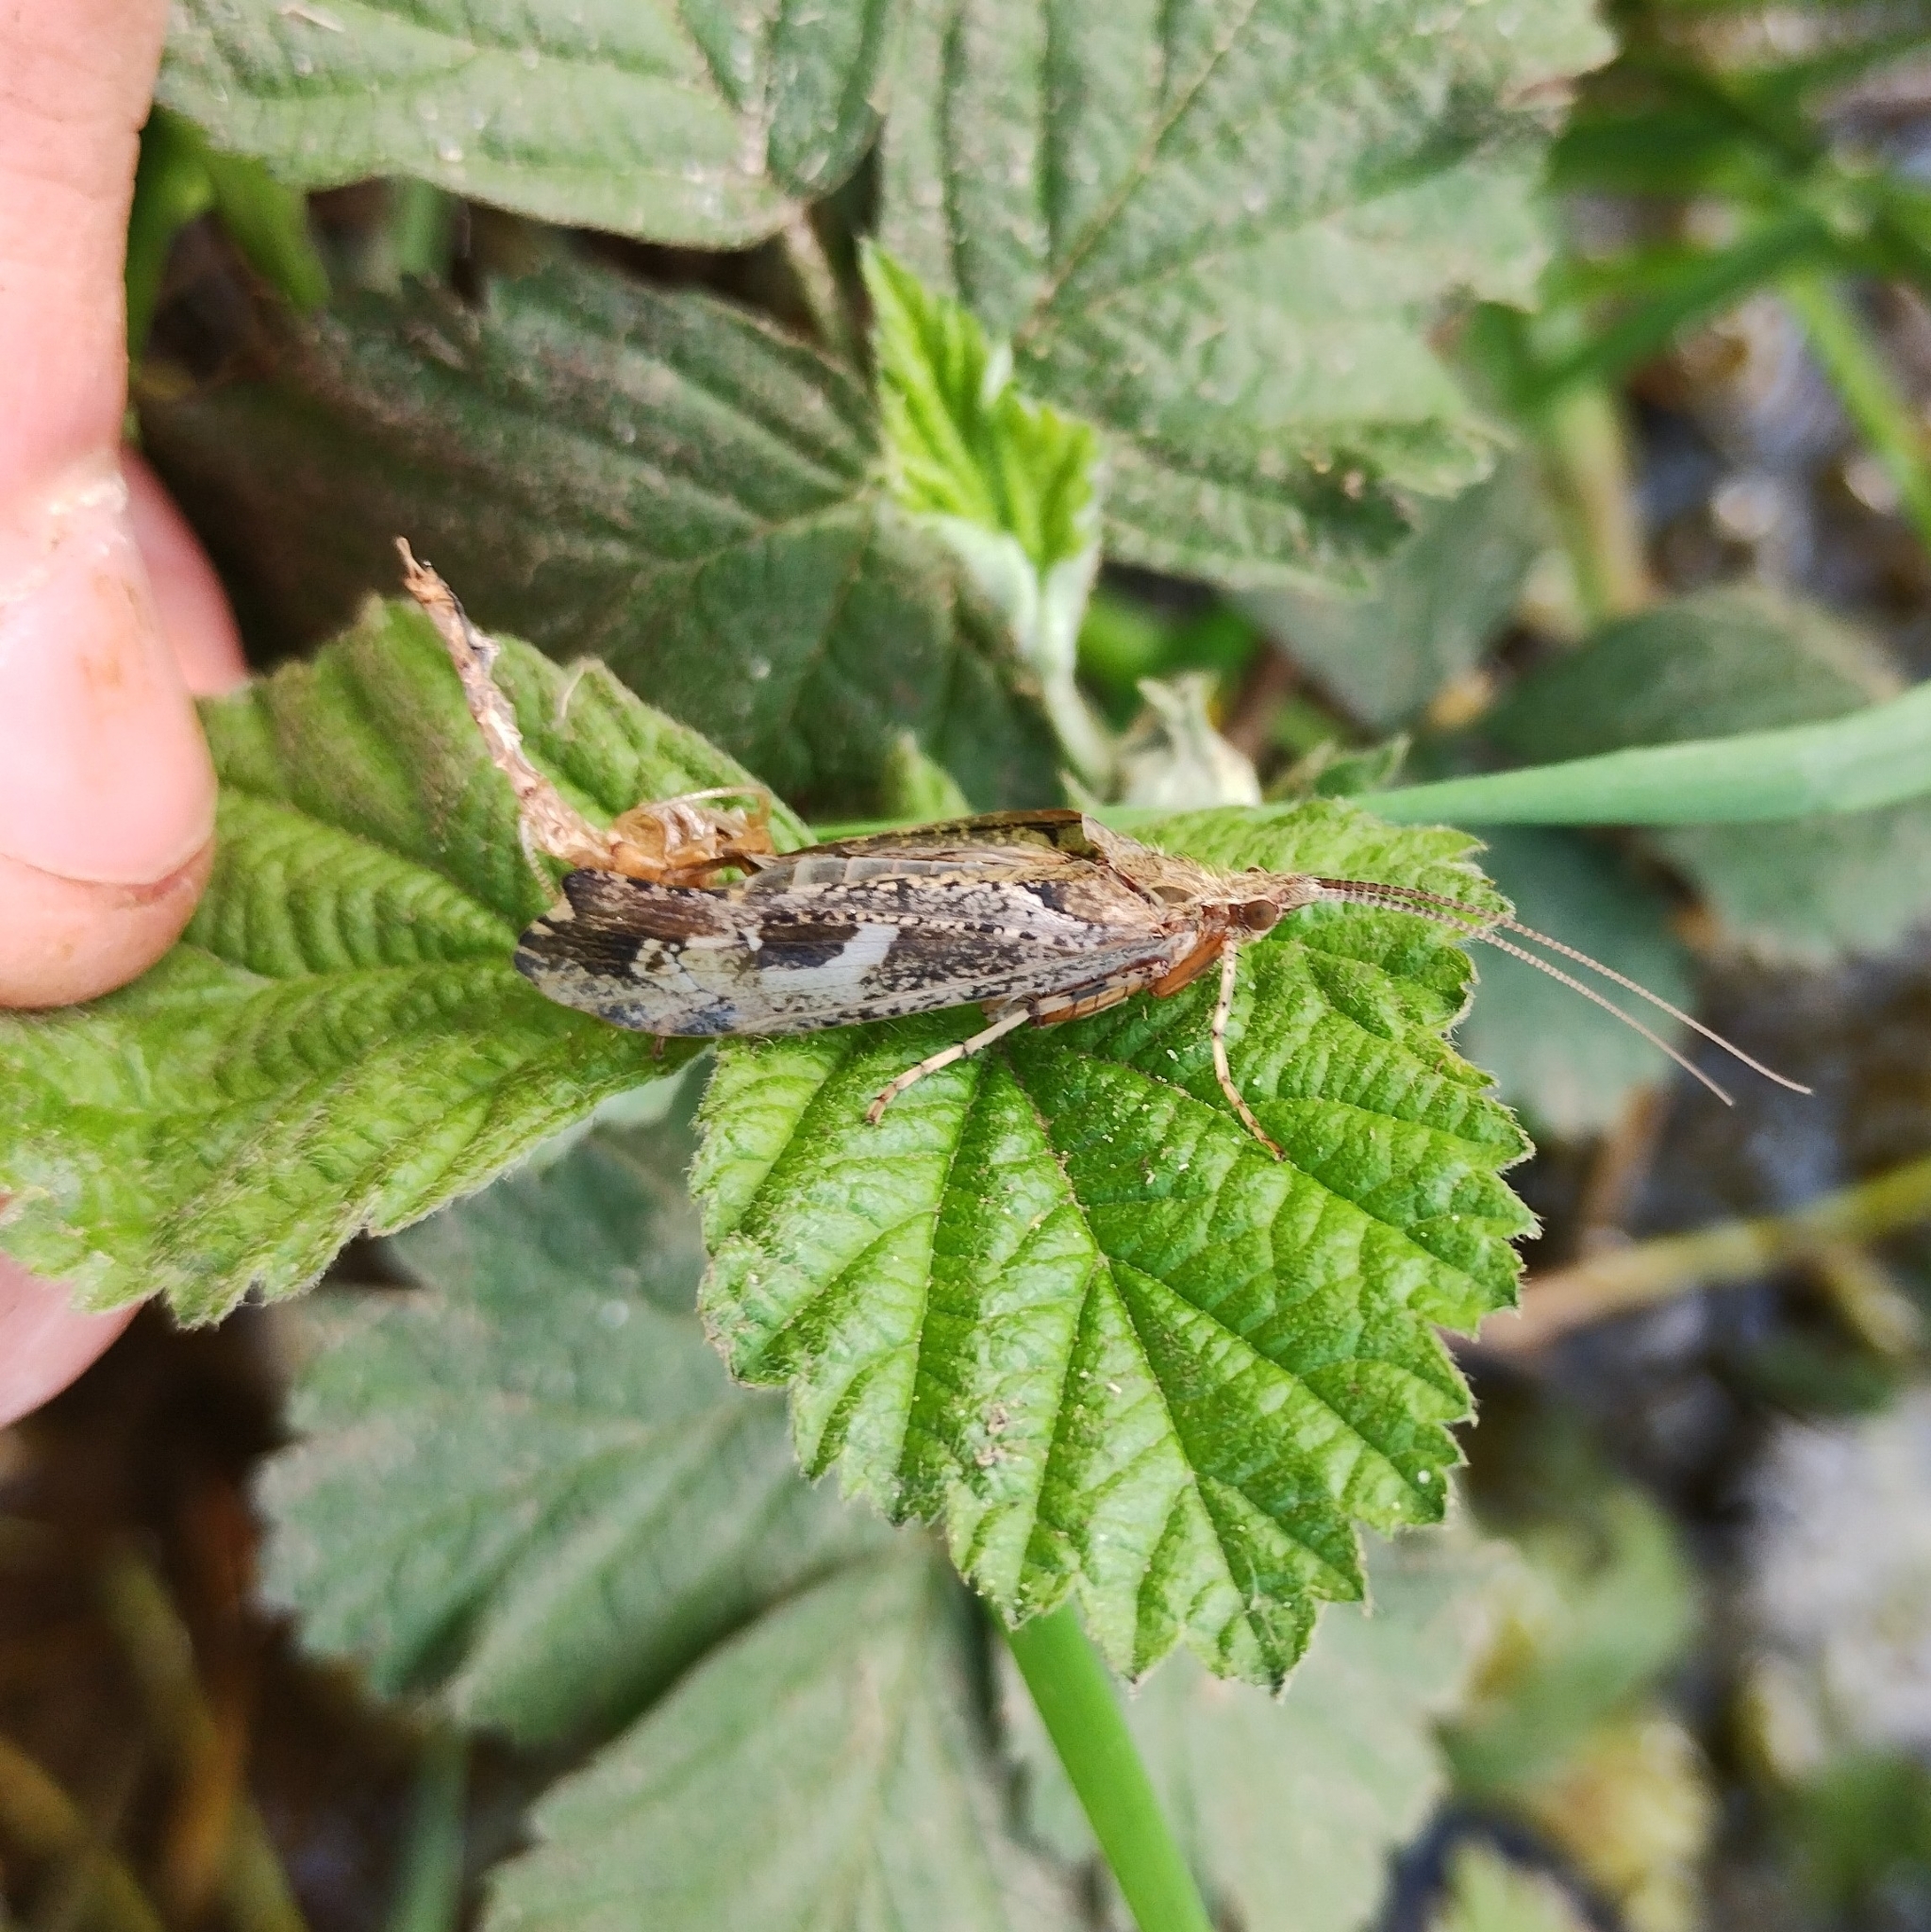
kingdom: Animalia
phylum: Arthropoda
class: Insecta
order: Trichoptera
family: Limnephilidae
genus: Glyphotaelius
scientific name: Glyphotaelius pellucidus
